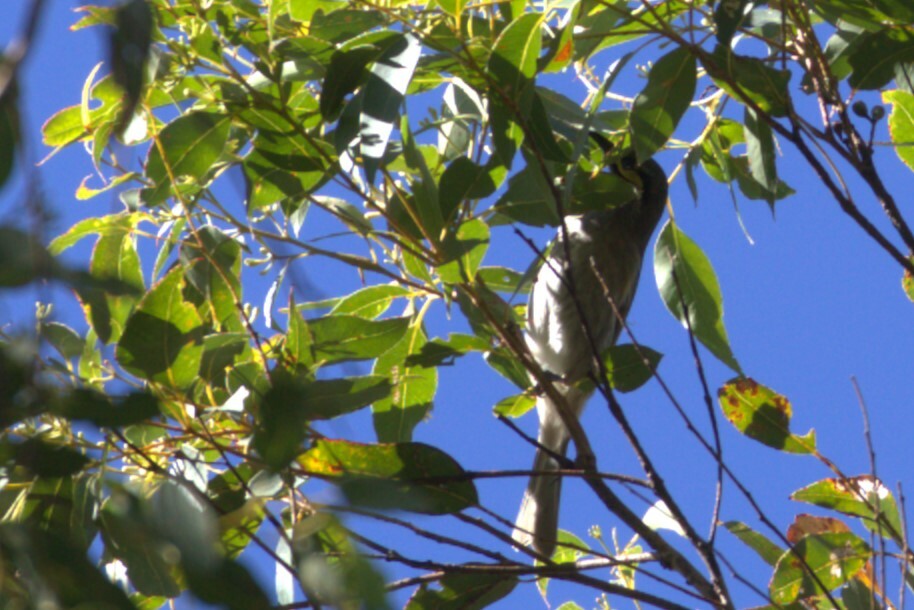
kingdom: Animalia
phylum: Chordata
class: Aves
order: Passeriformes
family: Meliphagidae
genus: Caligavis
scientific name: Caligavis chrysops
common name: Yellow-faced honeyeater
